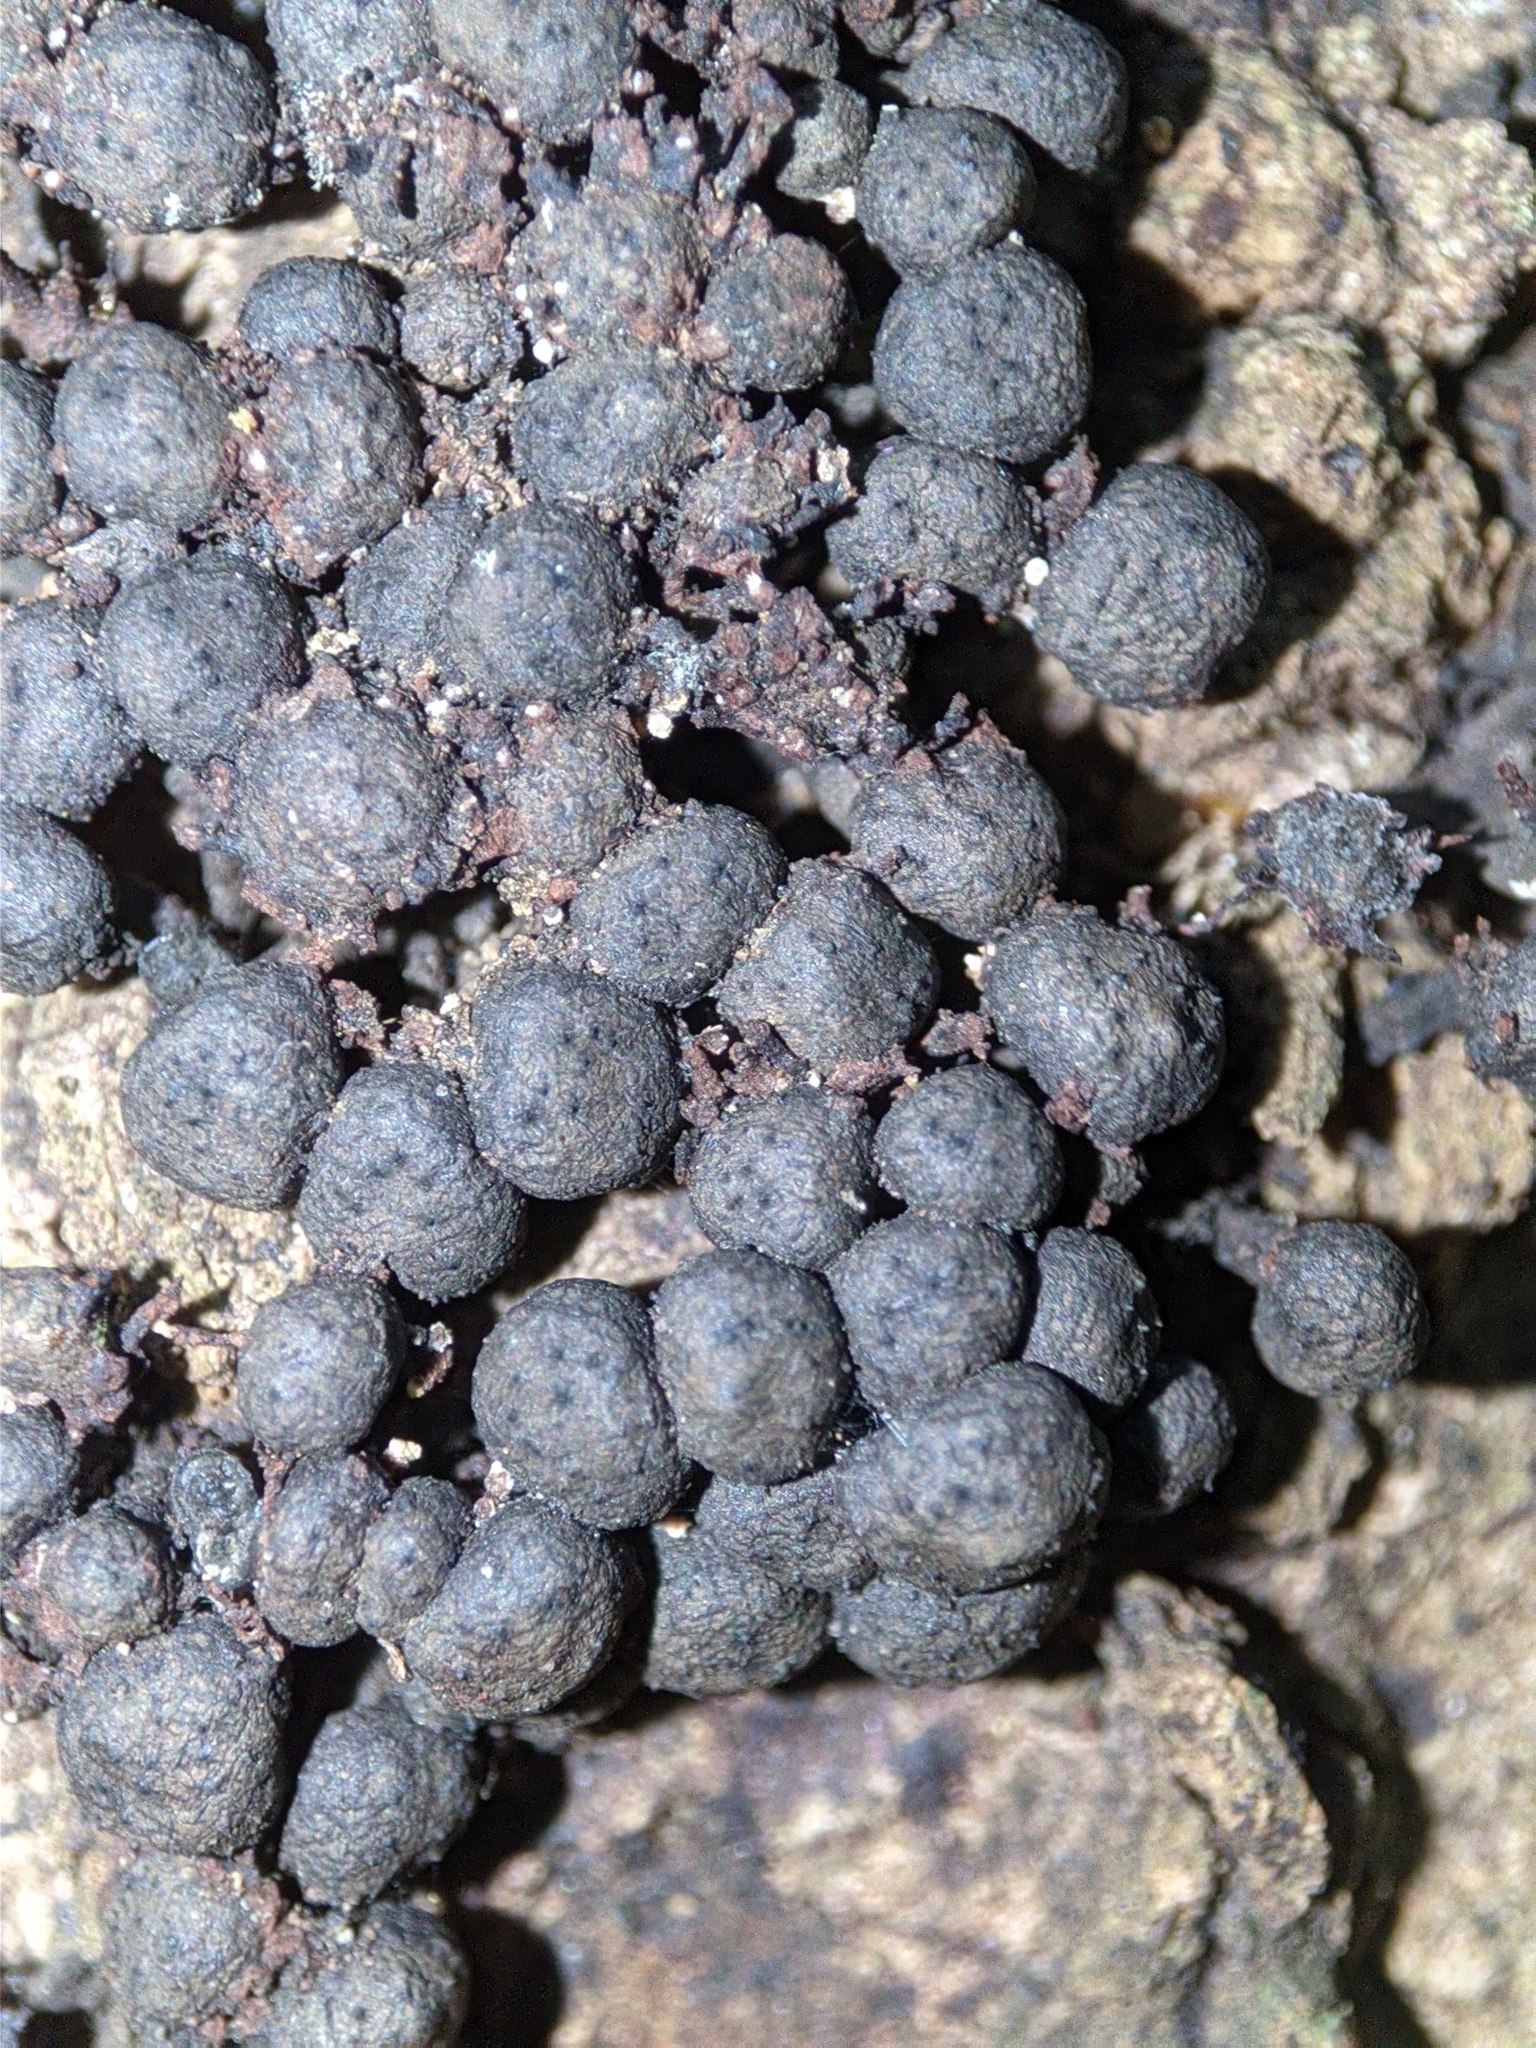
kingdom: Fungi
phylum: Ascomycota
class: Sordariomycetes
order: Xylariales
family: Xylariaceae
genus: Kretzschmaria
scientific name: Kretzschmaria clavus
